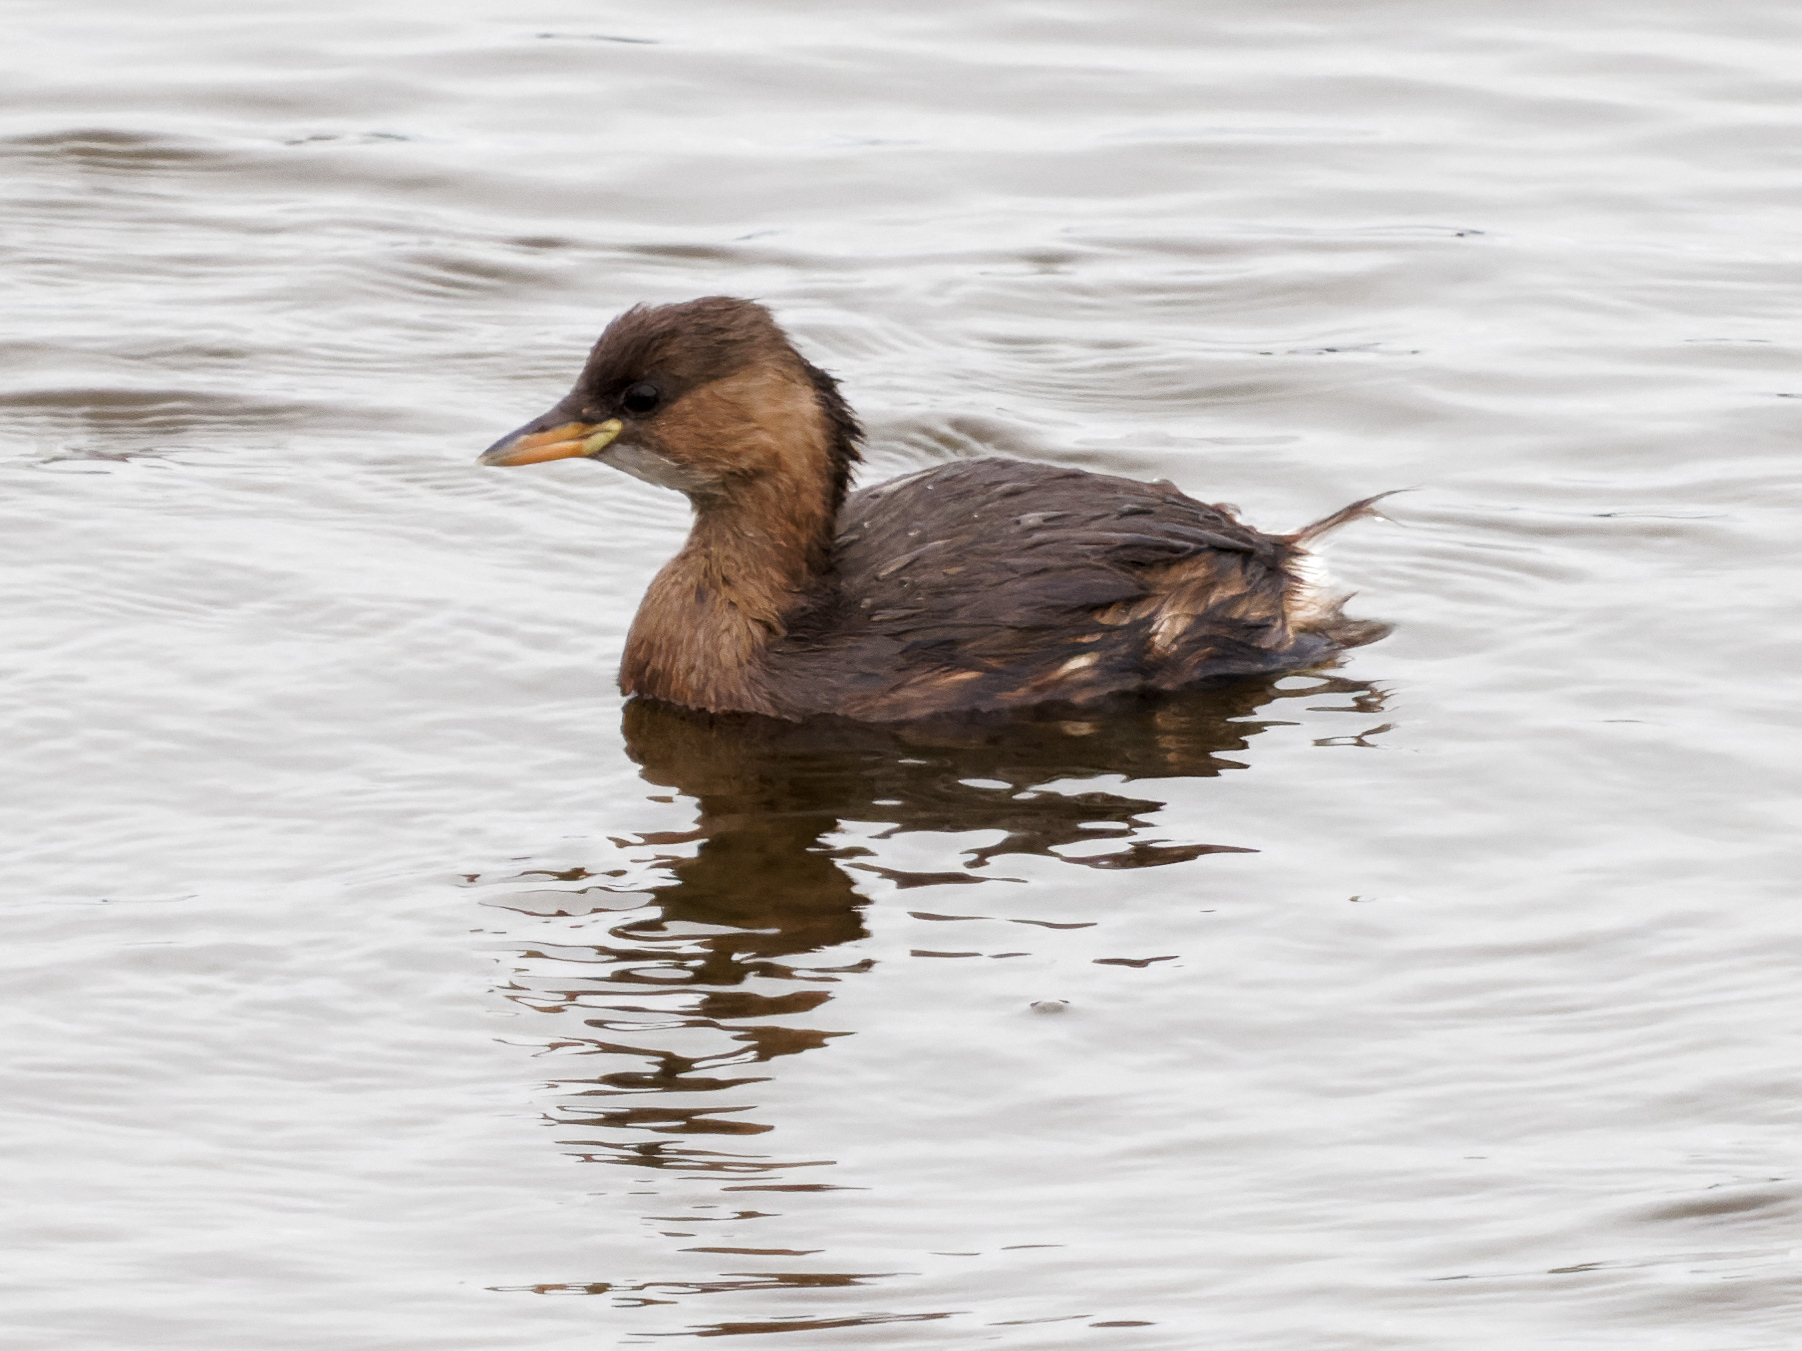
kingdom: Animalia
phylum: Chordata
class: Aves
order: Podicipediformes
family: Podicipedidae
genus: Tachybaptus
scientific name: Tachybaptus ruficollis
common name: Little grebe
